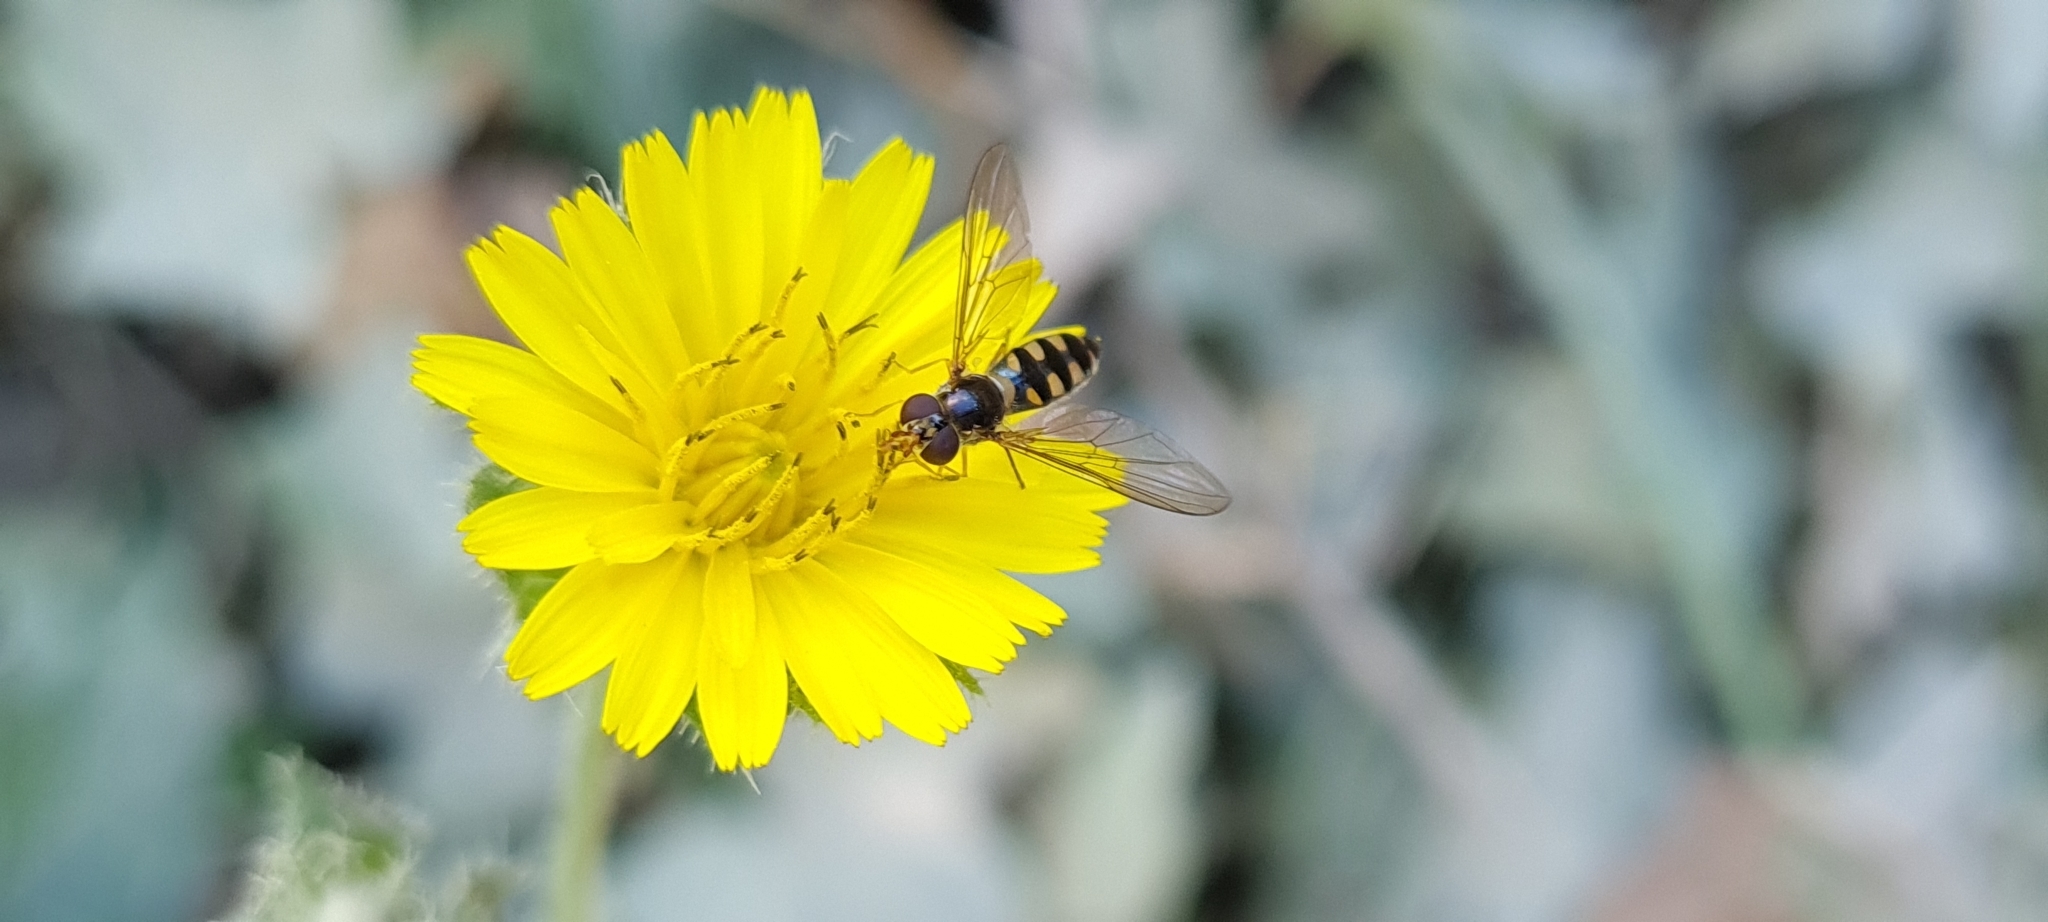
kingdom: Animalia
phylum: Arthropoda
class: Insecta
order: Diptera
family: Syrphidae
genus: Meliscaeva
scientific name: Meliscaeva auricollis
